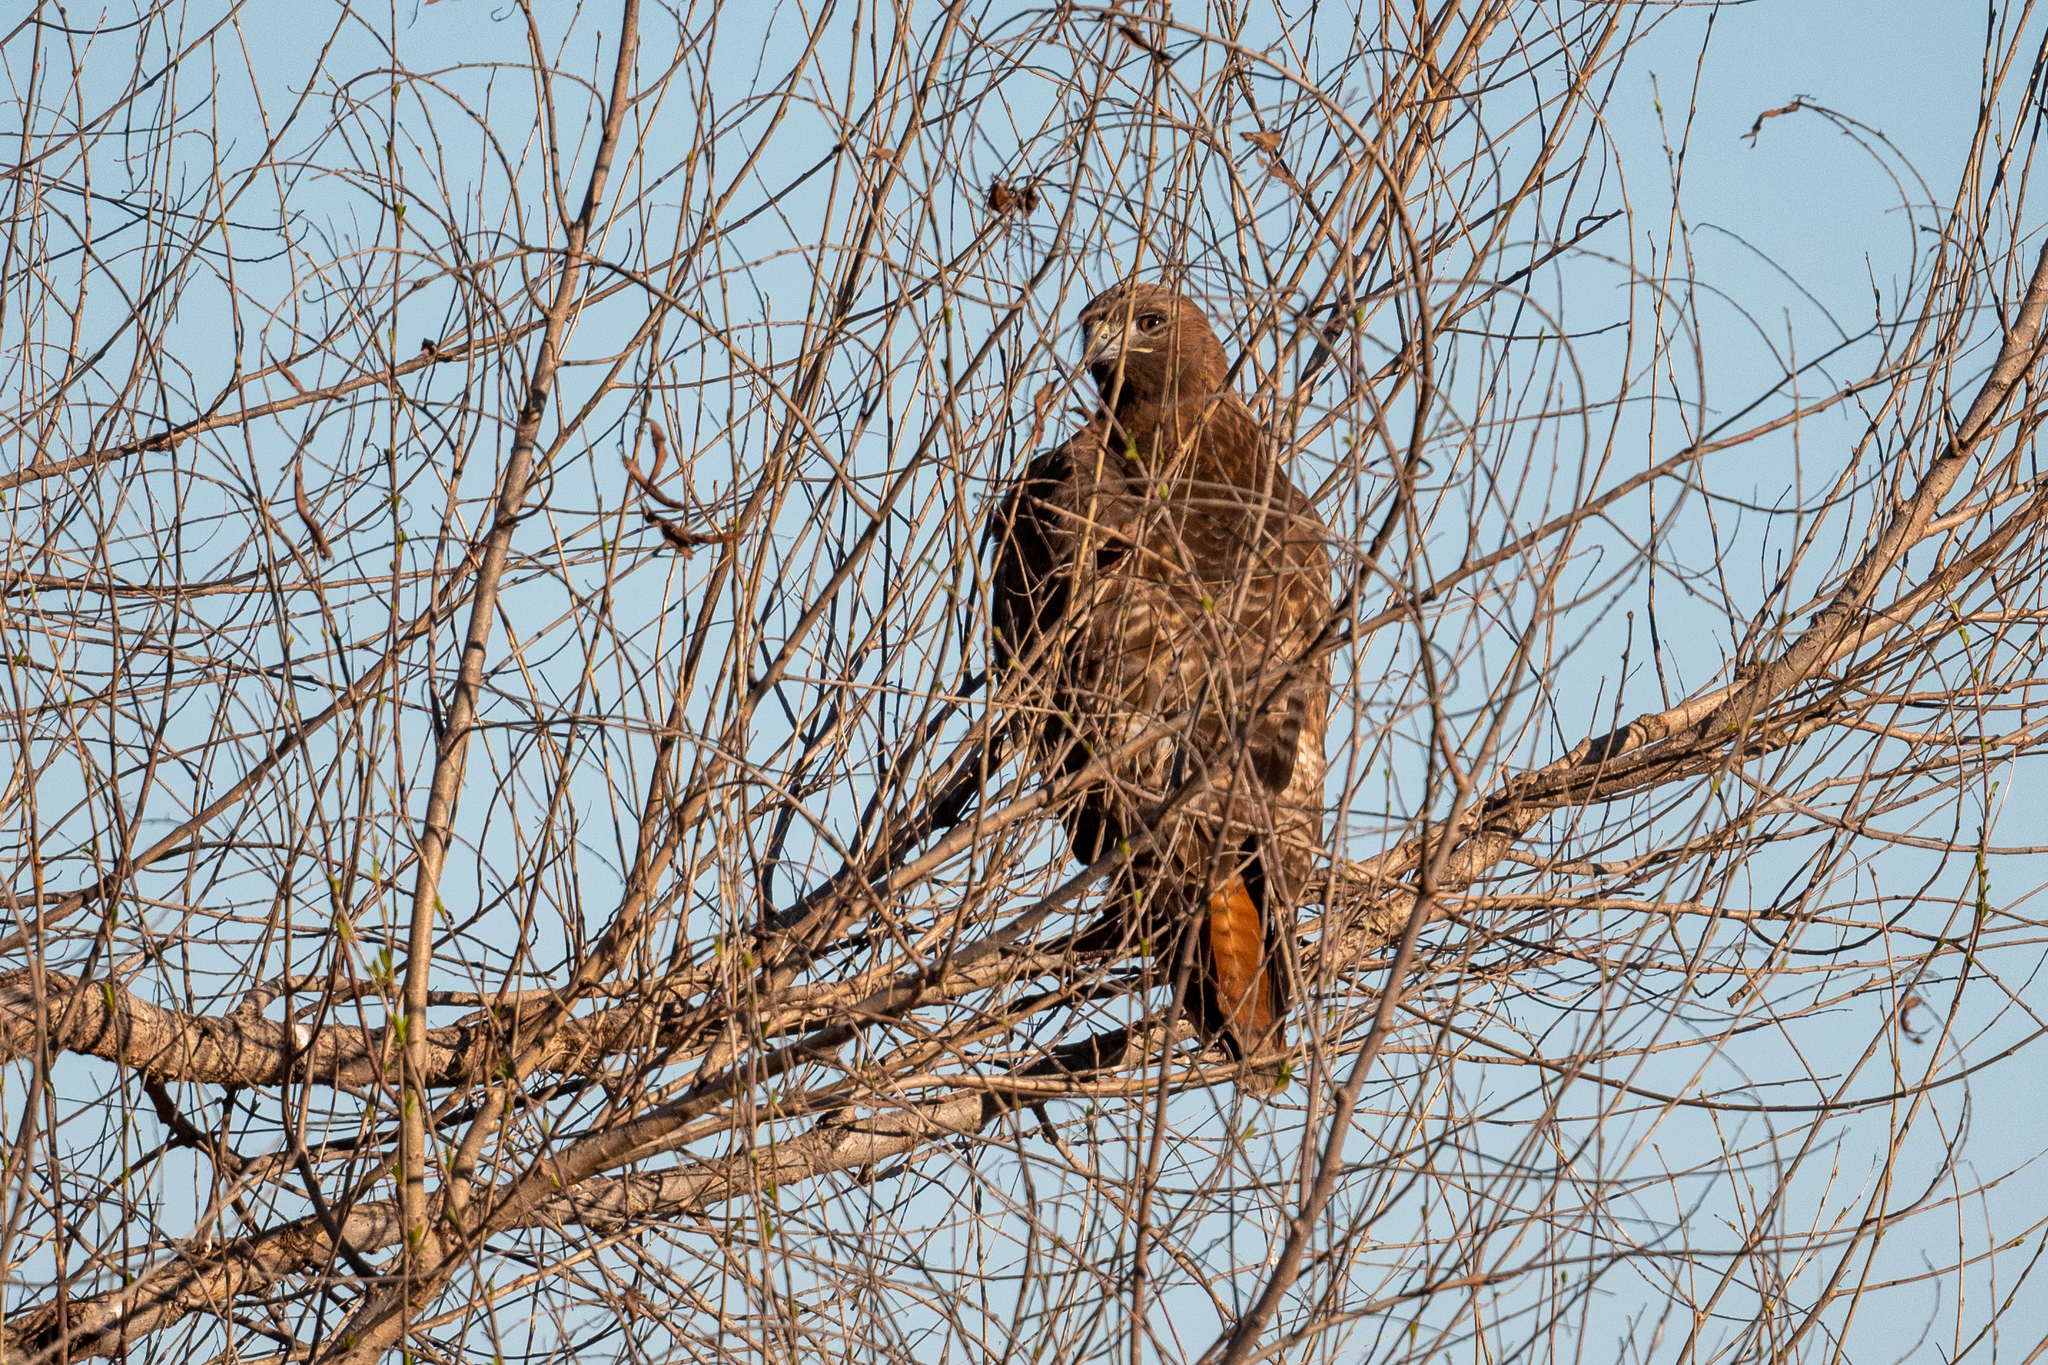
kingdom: Animalia
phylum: Chordata
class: Aves
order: Accipitriformes
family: Accipitridae
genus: Buteo
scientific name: Buteo jamaicensis
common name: Red-tailed hawk
